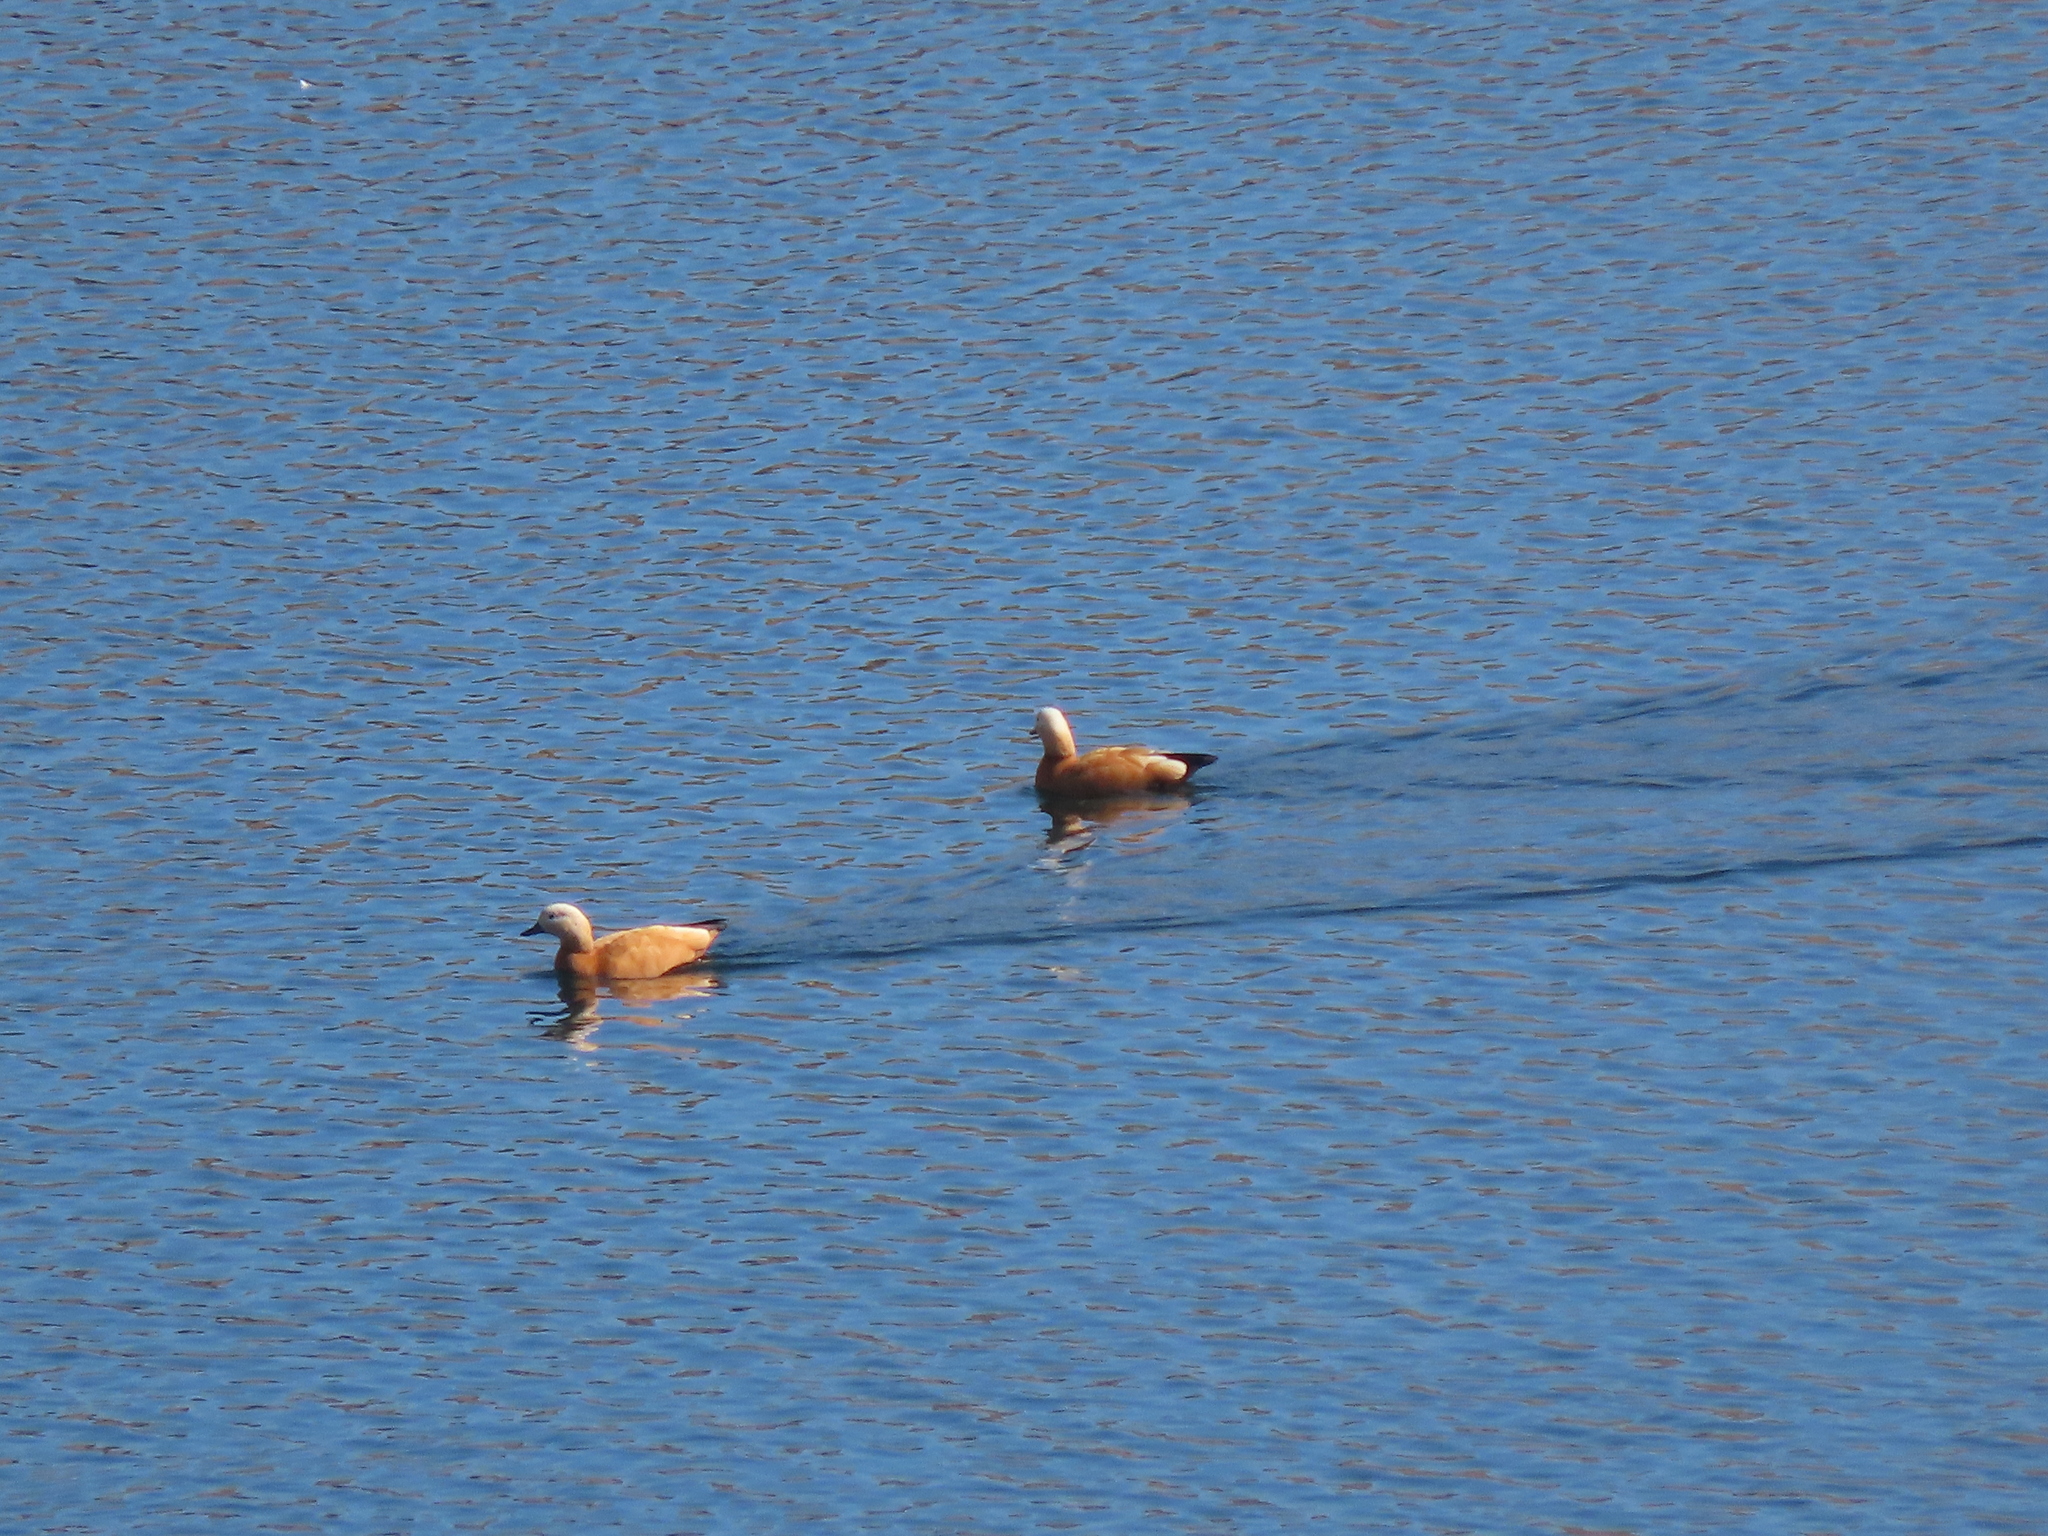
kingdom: Animalia
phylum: Chordata
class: Aves
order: Anseriformes
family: Anatidae
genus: Tadorna
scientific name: Tadorna ferruginea
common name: Ruddy shelduck
